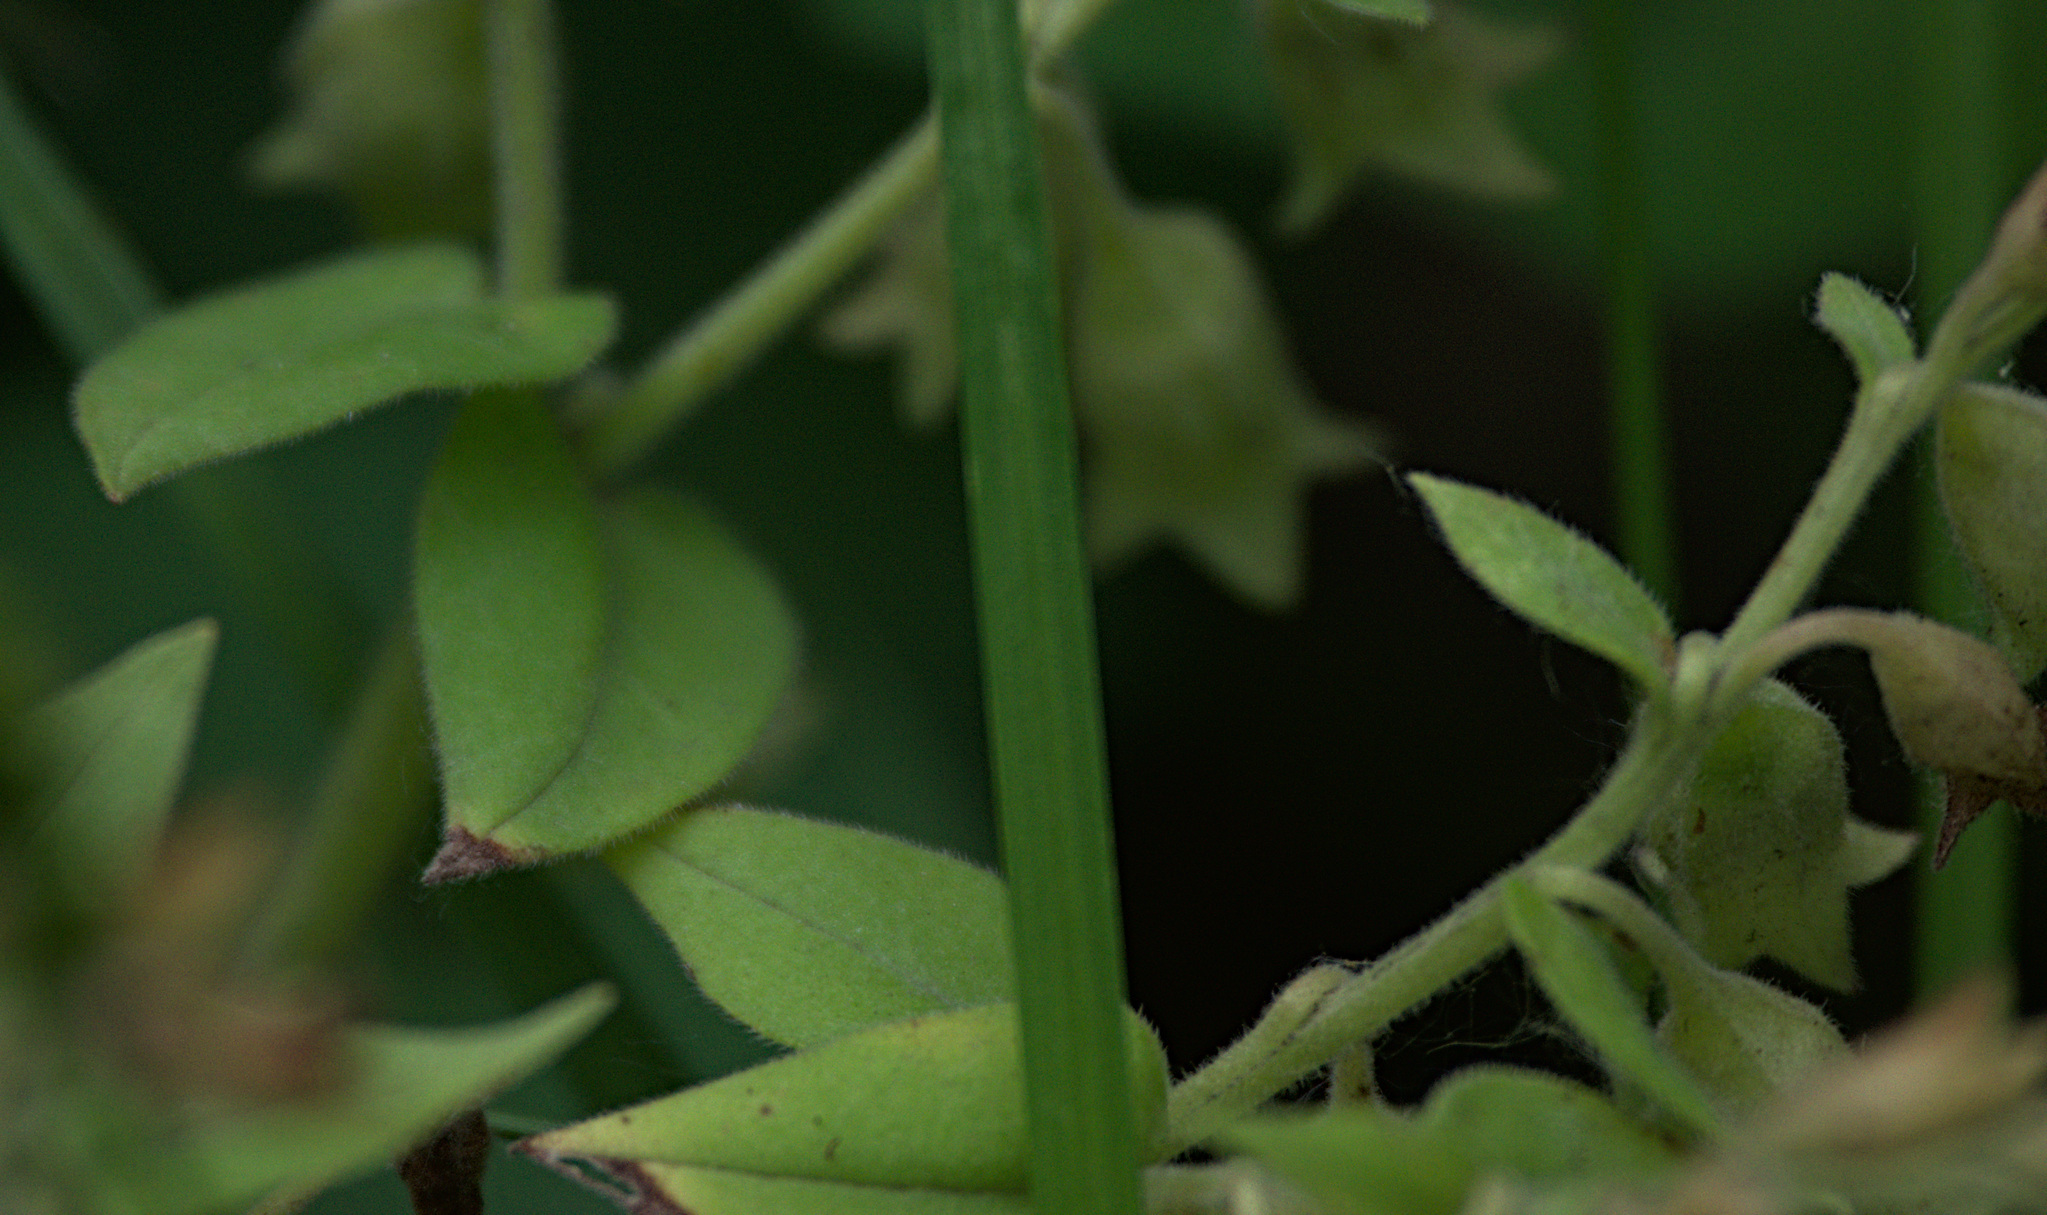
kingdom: Plantae
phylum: Tracheophyta
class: Magnoliopsida
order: Boraginales
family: Boraginaceae
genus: Pulmonaria
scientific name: Pulmonaria mollis
